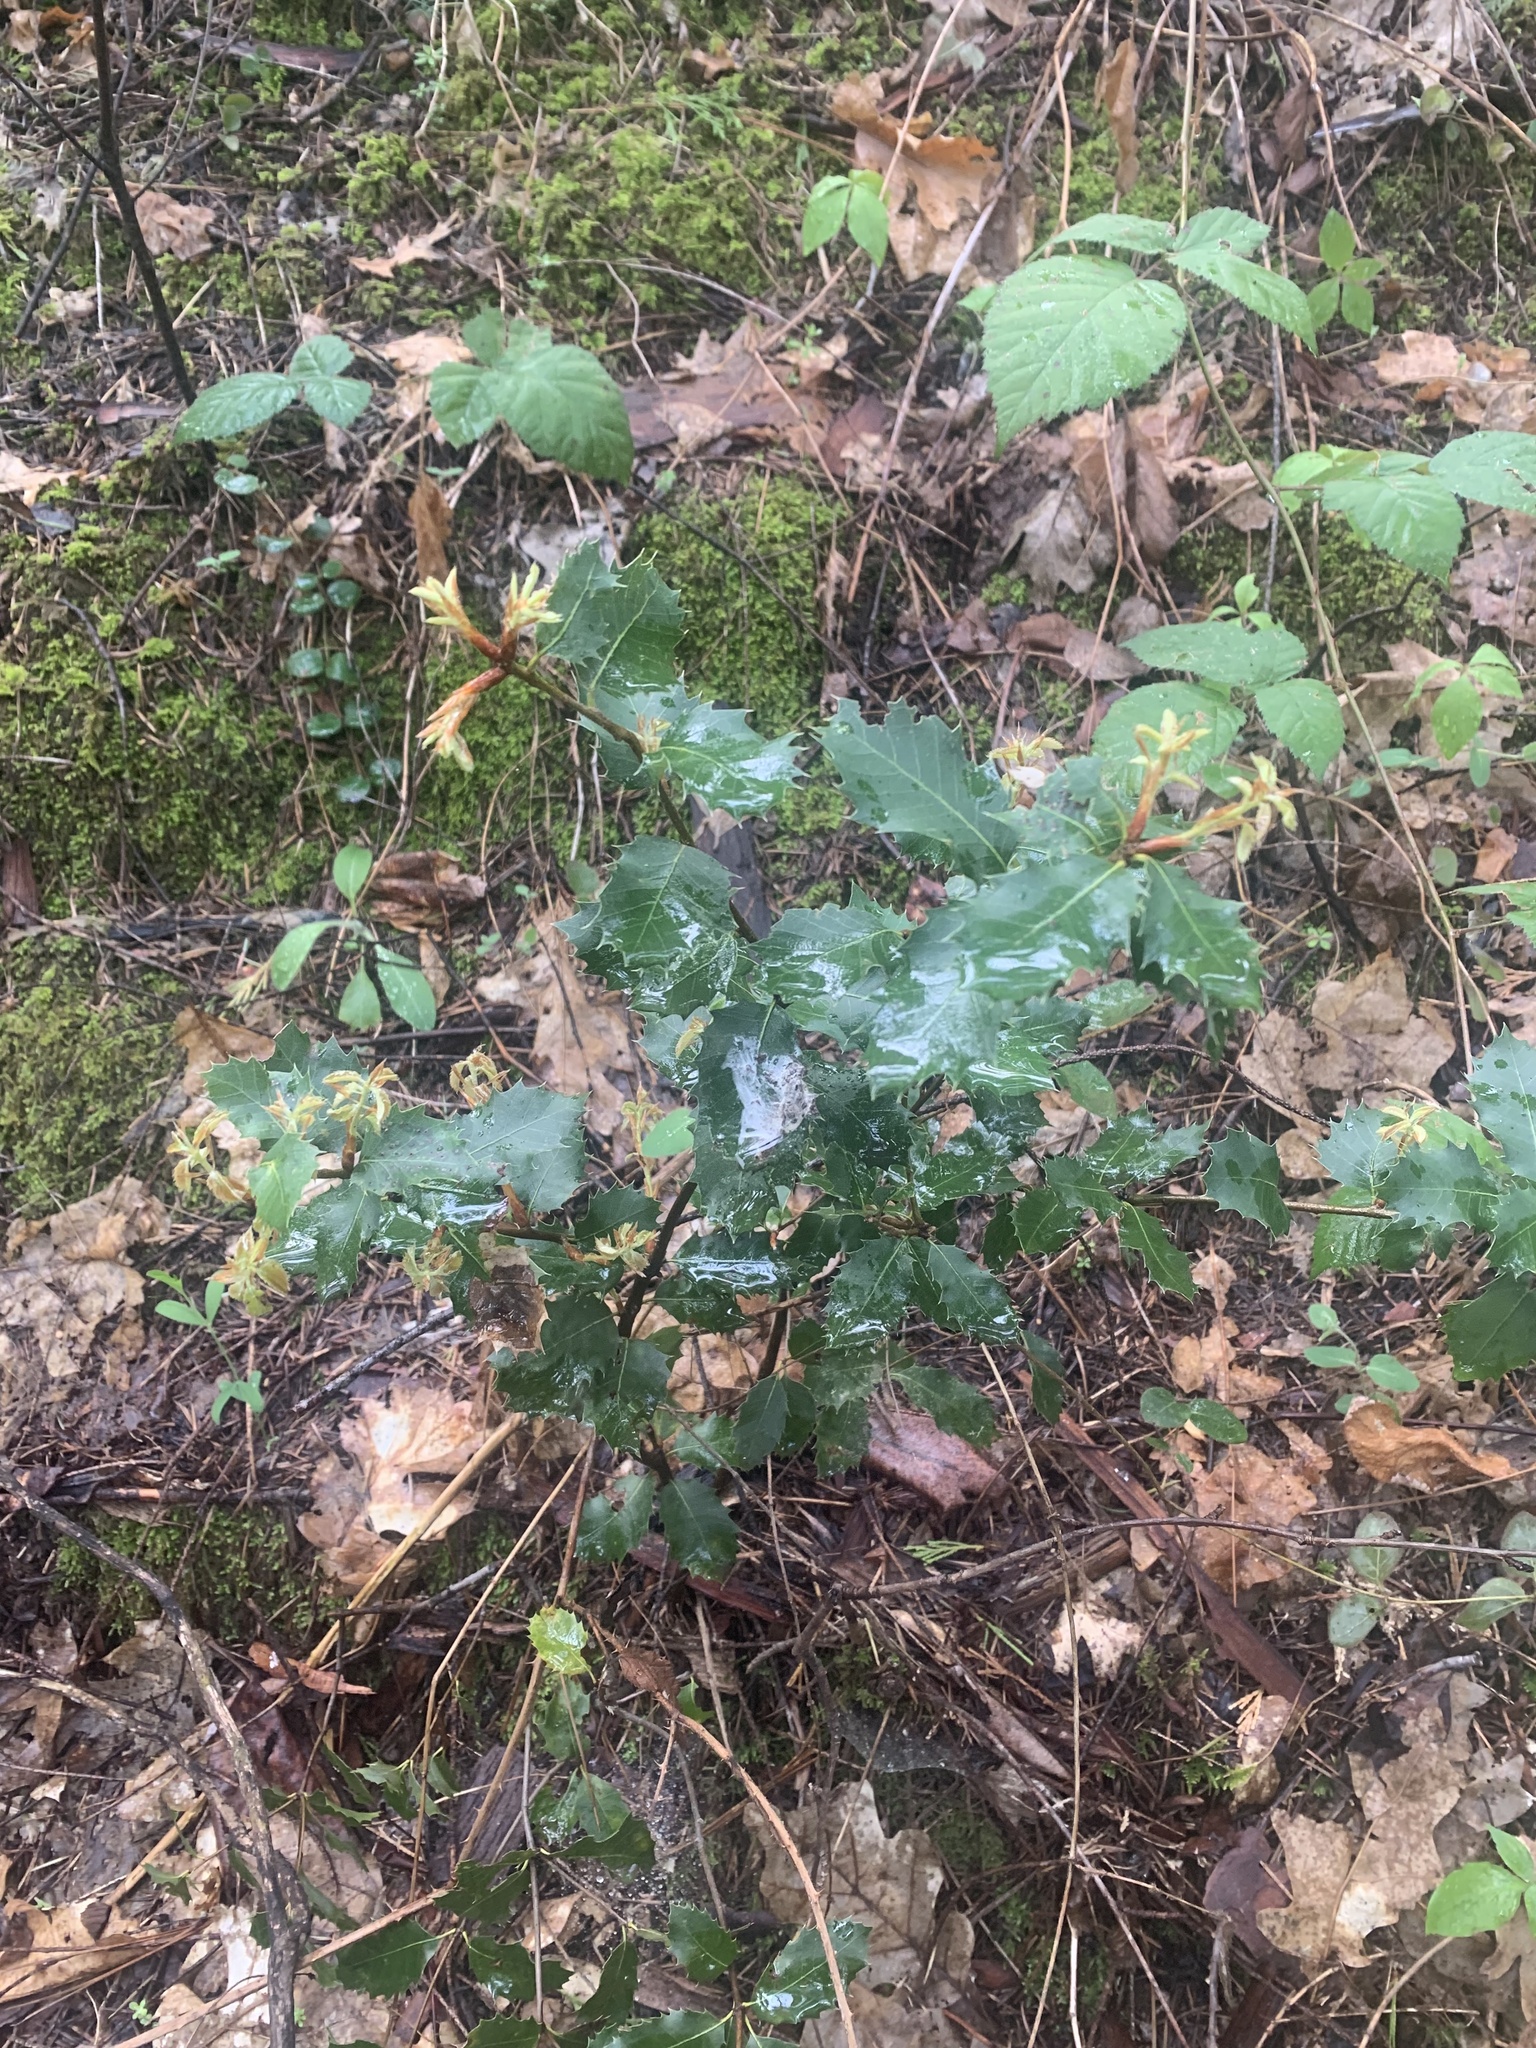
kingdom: Plantae
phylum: Tracheophyta
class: Magnoliopsida
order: Fagales
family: Fagaceae
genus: Quercus
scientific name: Quercus chrysolepis
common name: Canyon live oak
